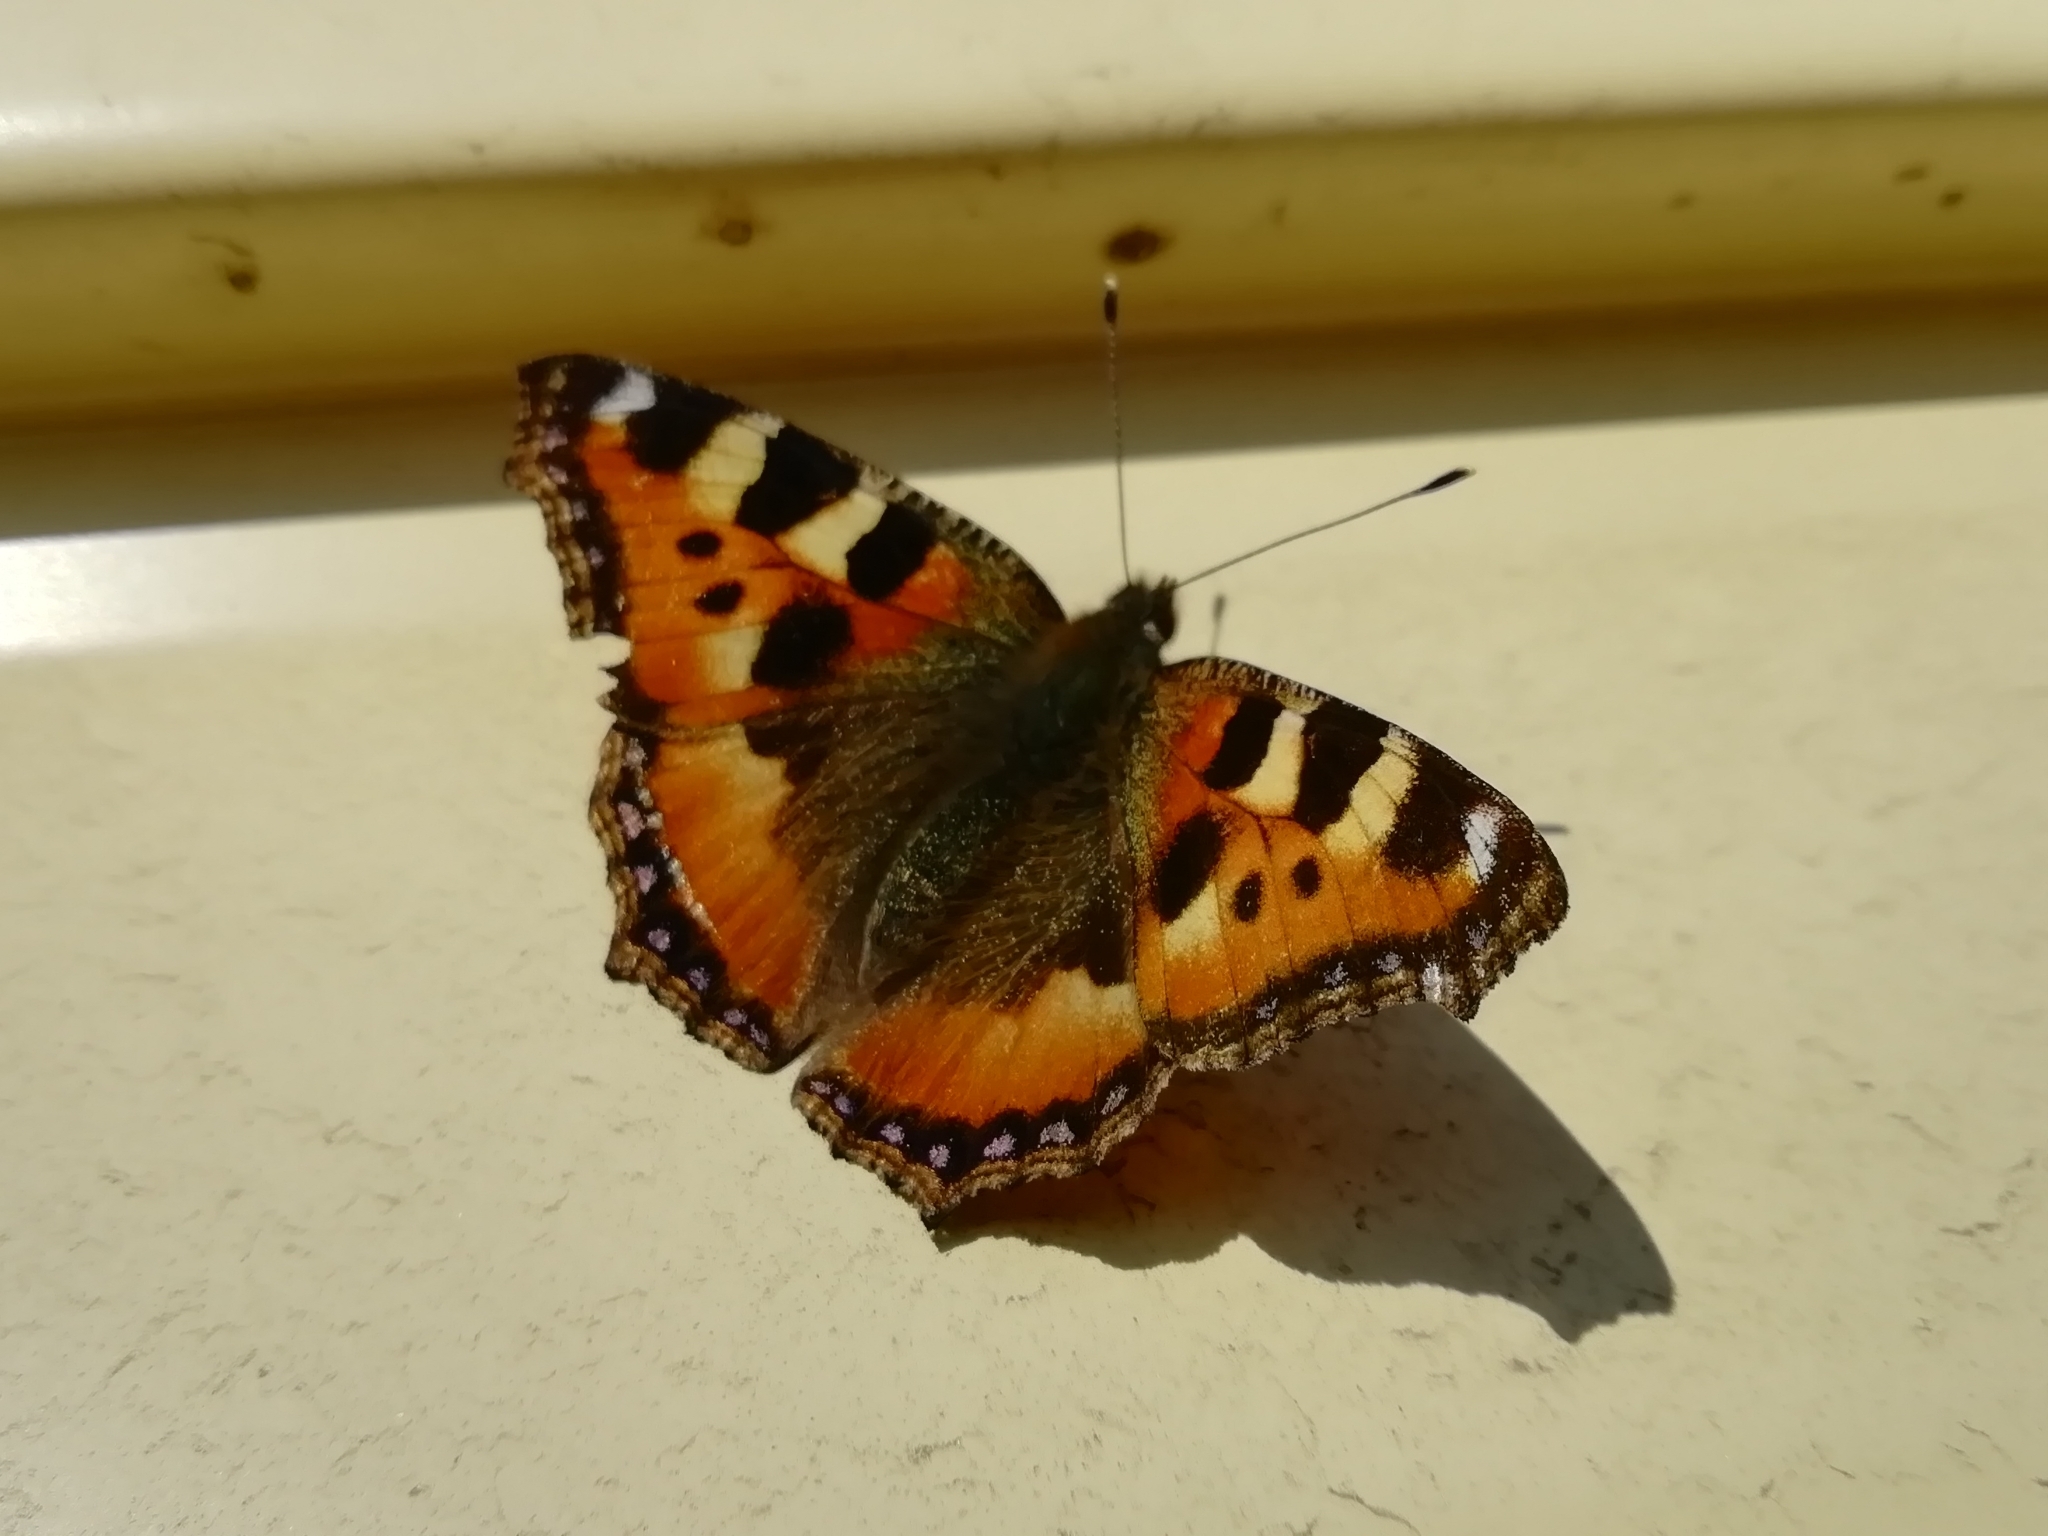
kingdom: Animalia
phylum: Arthropoda
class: Insecta
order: Lepidoptera
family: Nymphalidae
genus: Aglais
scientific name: Aglais urticae
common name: Small tortoiseshell
